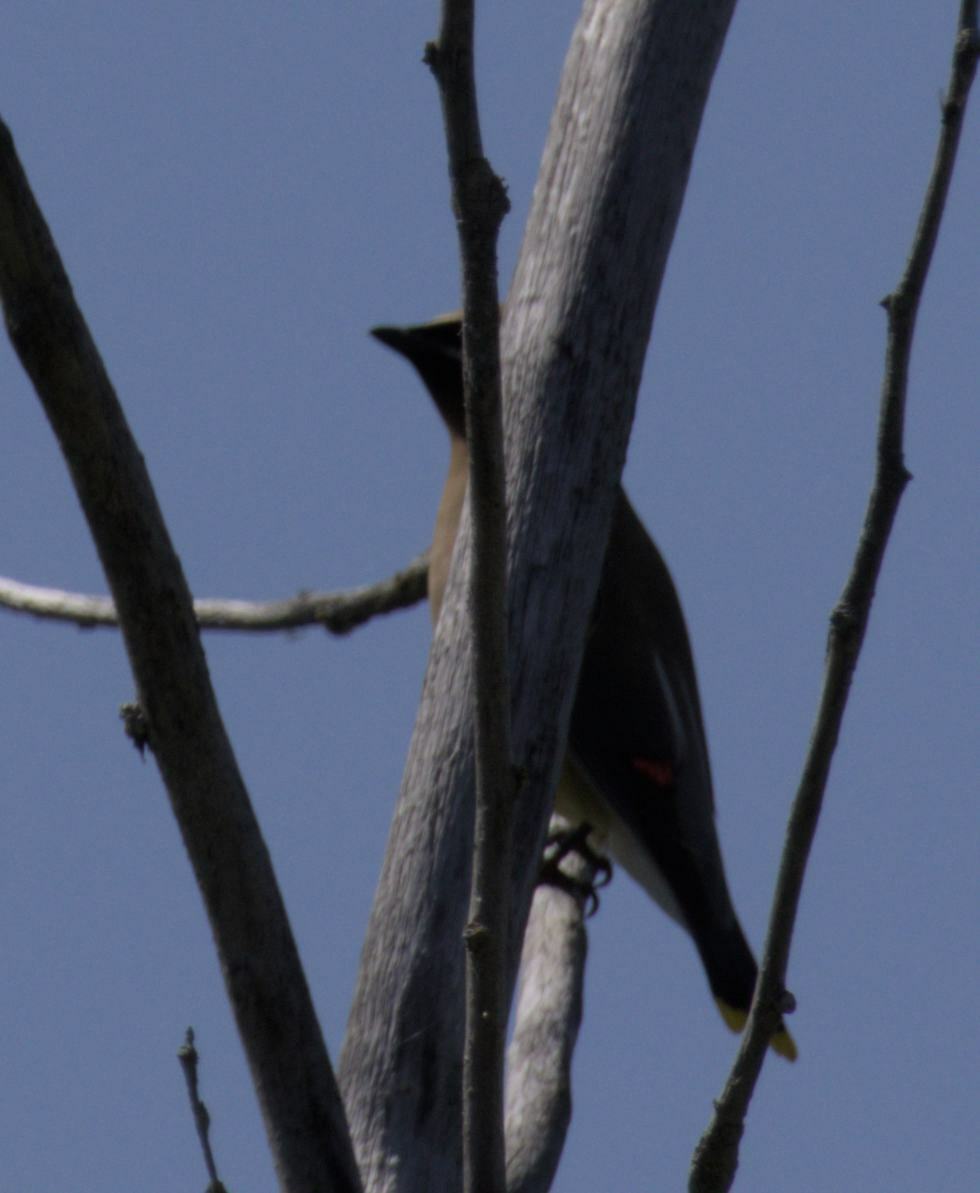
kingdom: Animalia
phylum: Chordata
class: Aves
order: Passeriformes
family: Bombycillidae
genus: Bombycilla
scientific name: Bombycilla cedrorum
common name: Cedar waxwing
